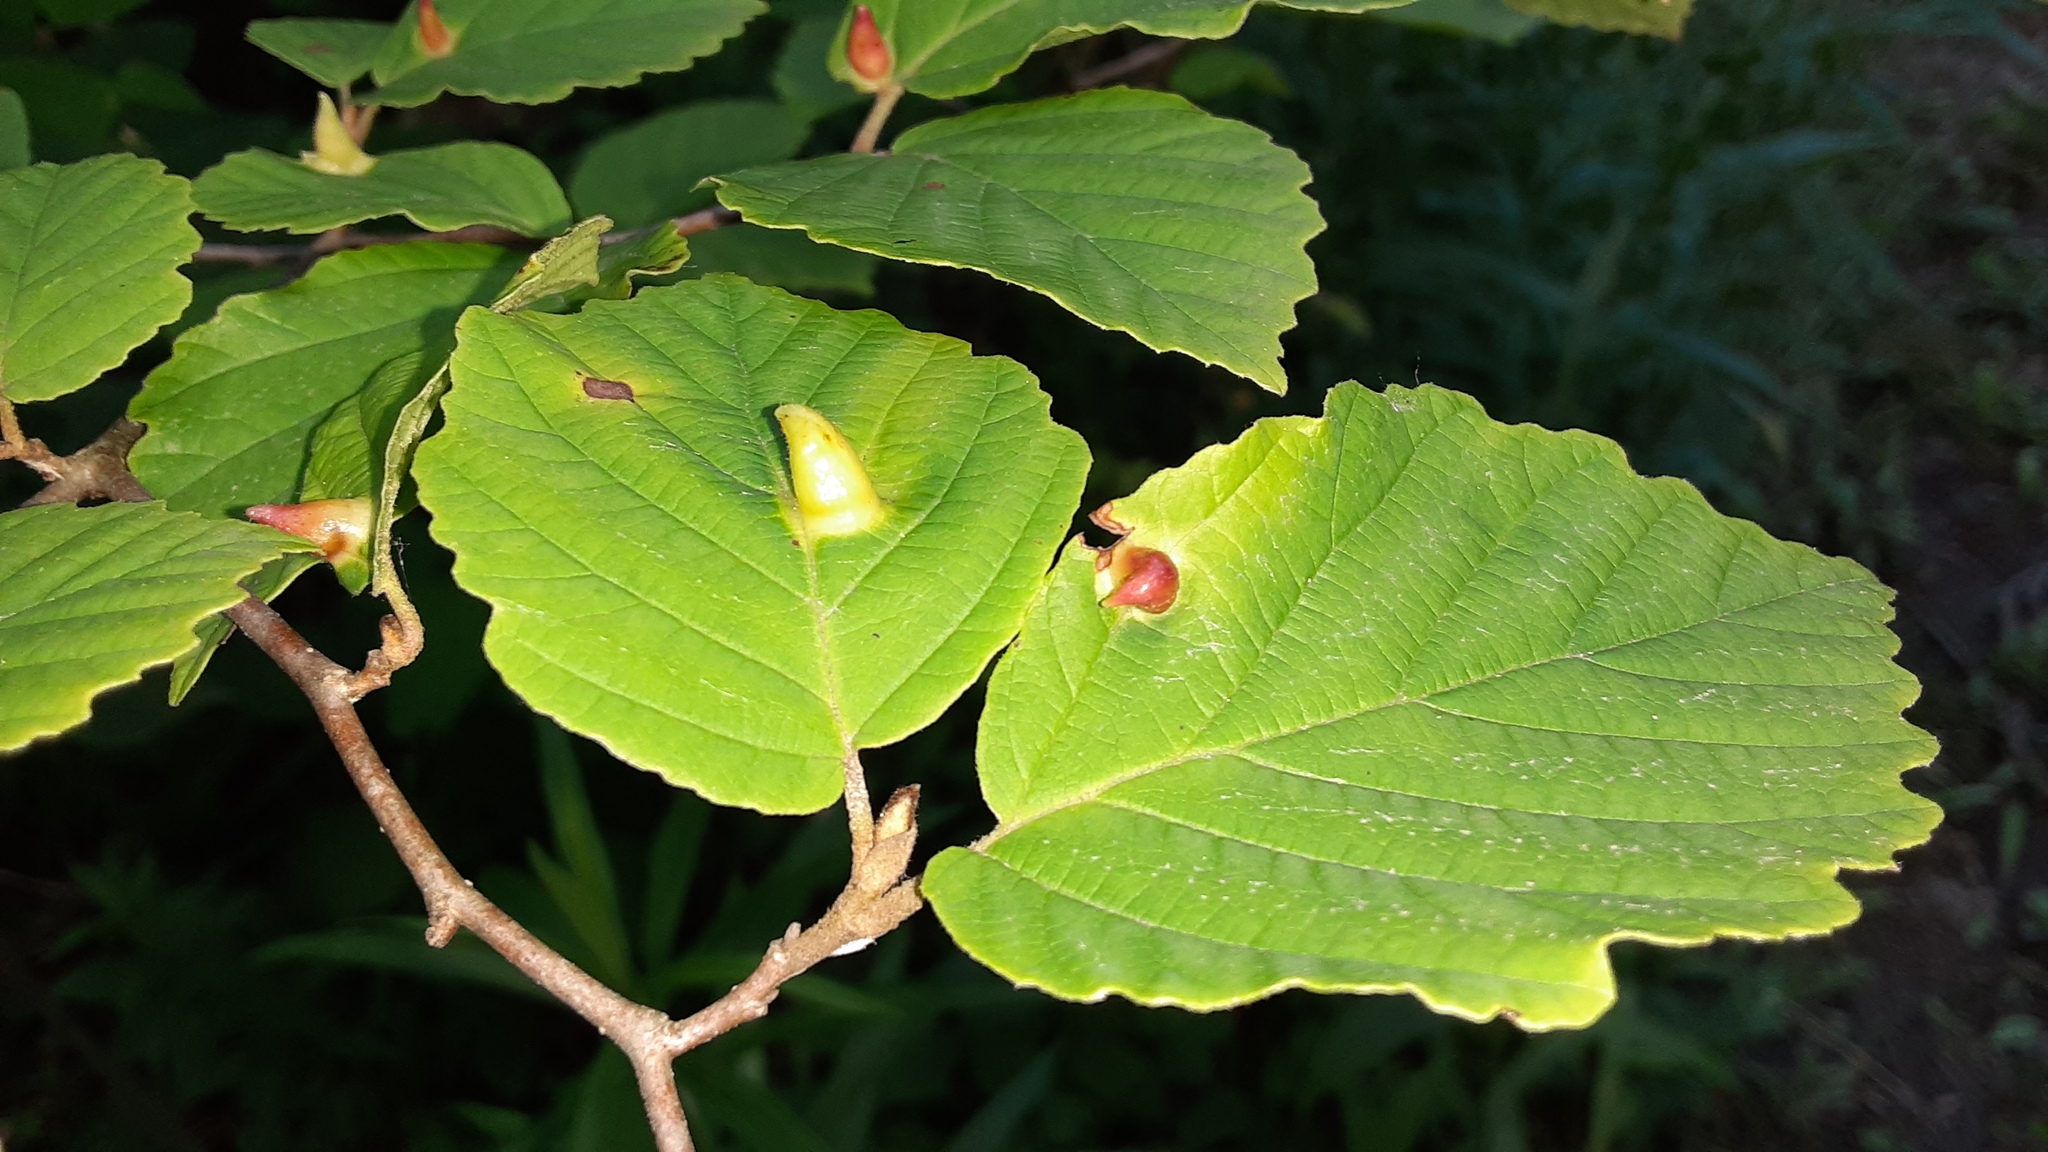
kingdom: Animalia
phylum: Arthropoda
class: Insecta
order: Hemiptera
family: Aphididae
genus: Hormaphis
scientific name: Hormaphis hamamelidis
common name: Witch-hazel cone gall aphid
